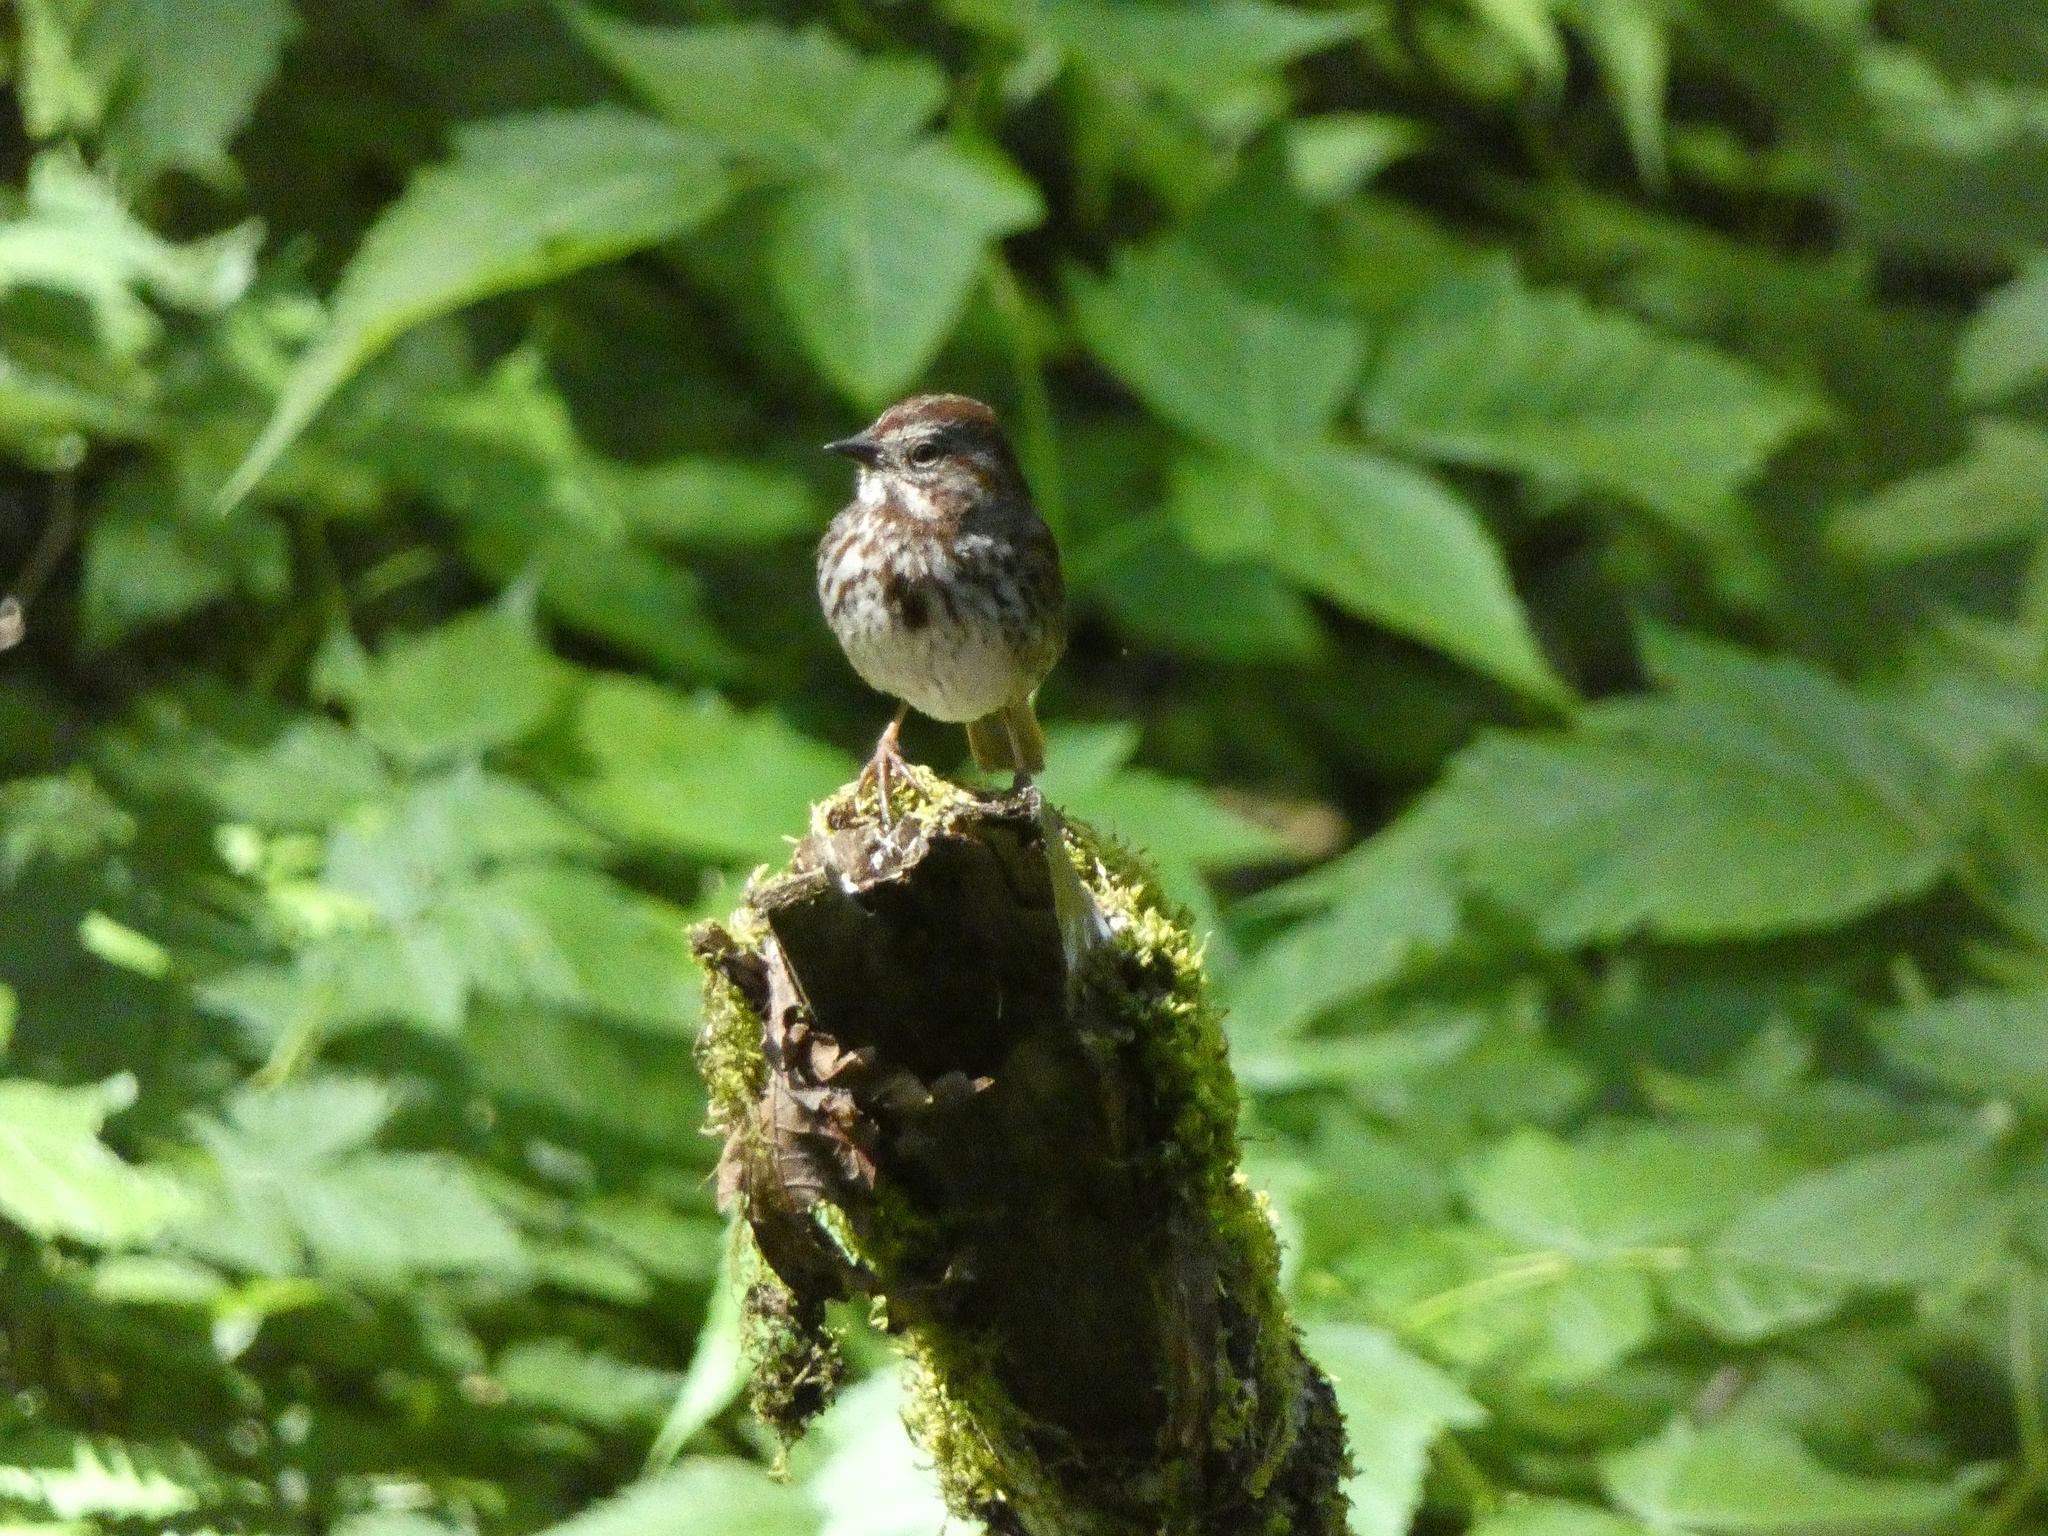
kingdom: Animalia
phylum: Chordata
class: Aves
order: Passeriformes
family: Passerellidae
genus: Melospiza
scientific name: Melospiza melodia
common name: Song sparrow
